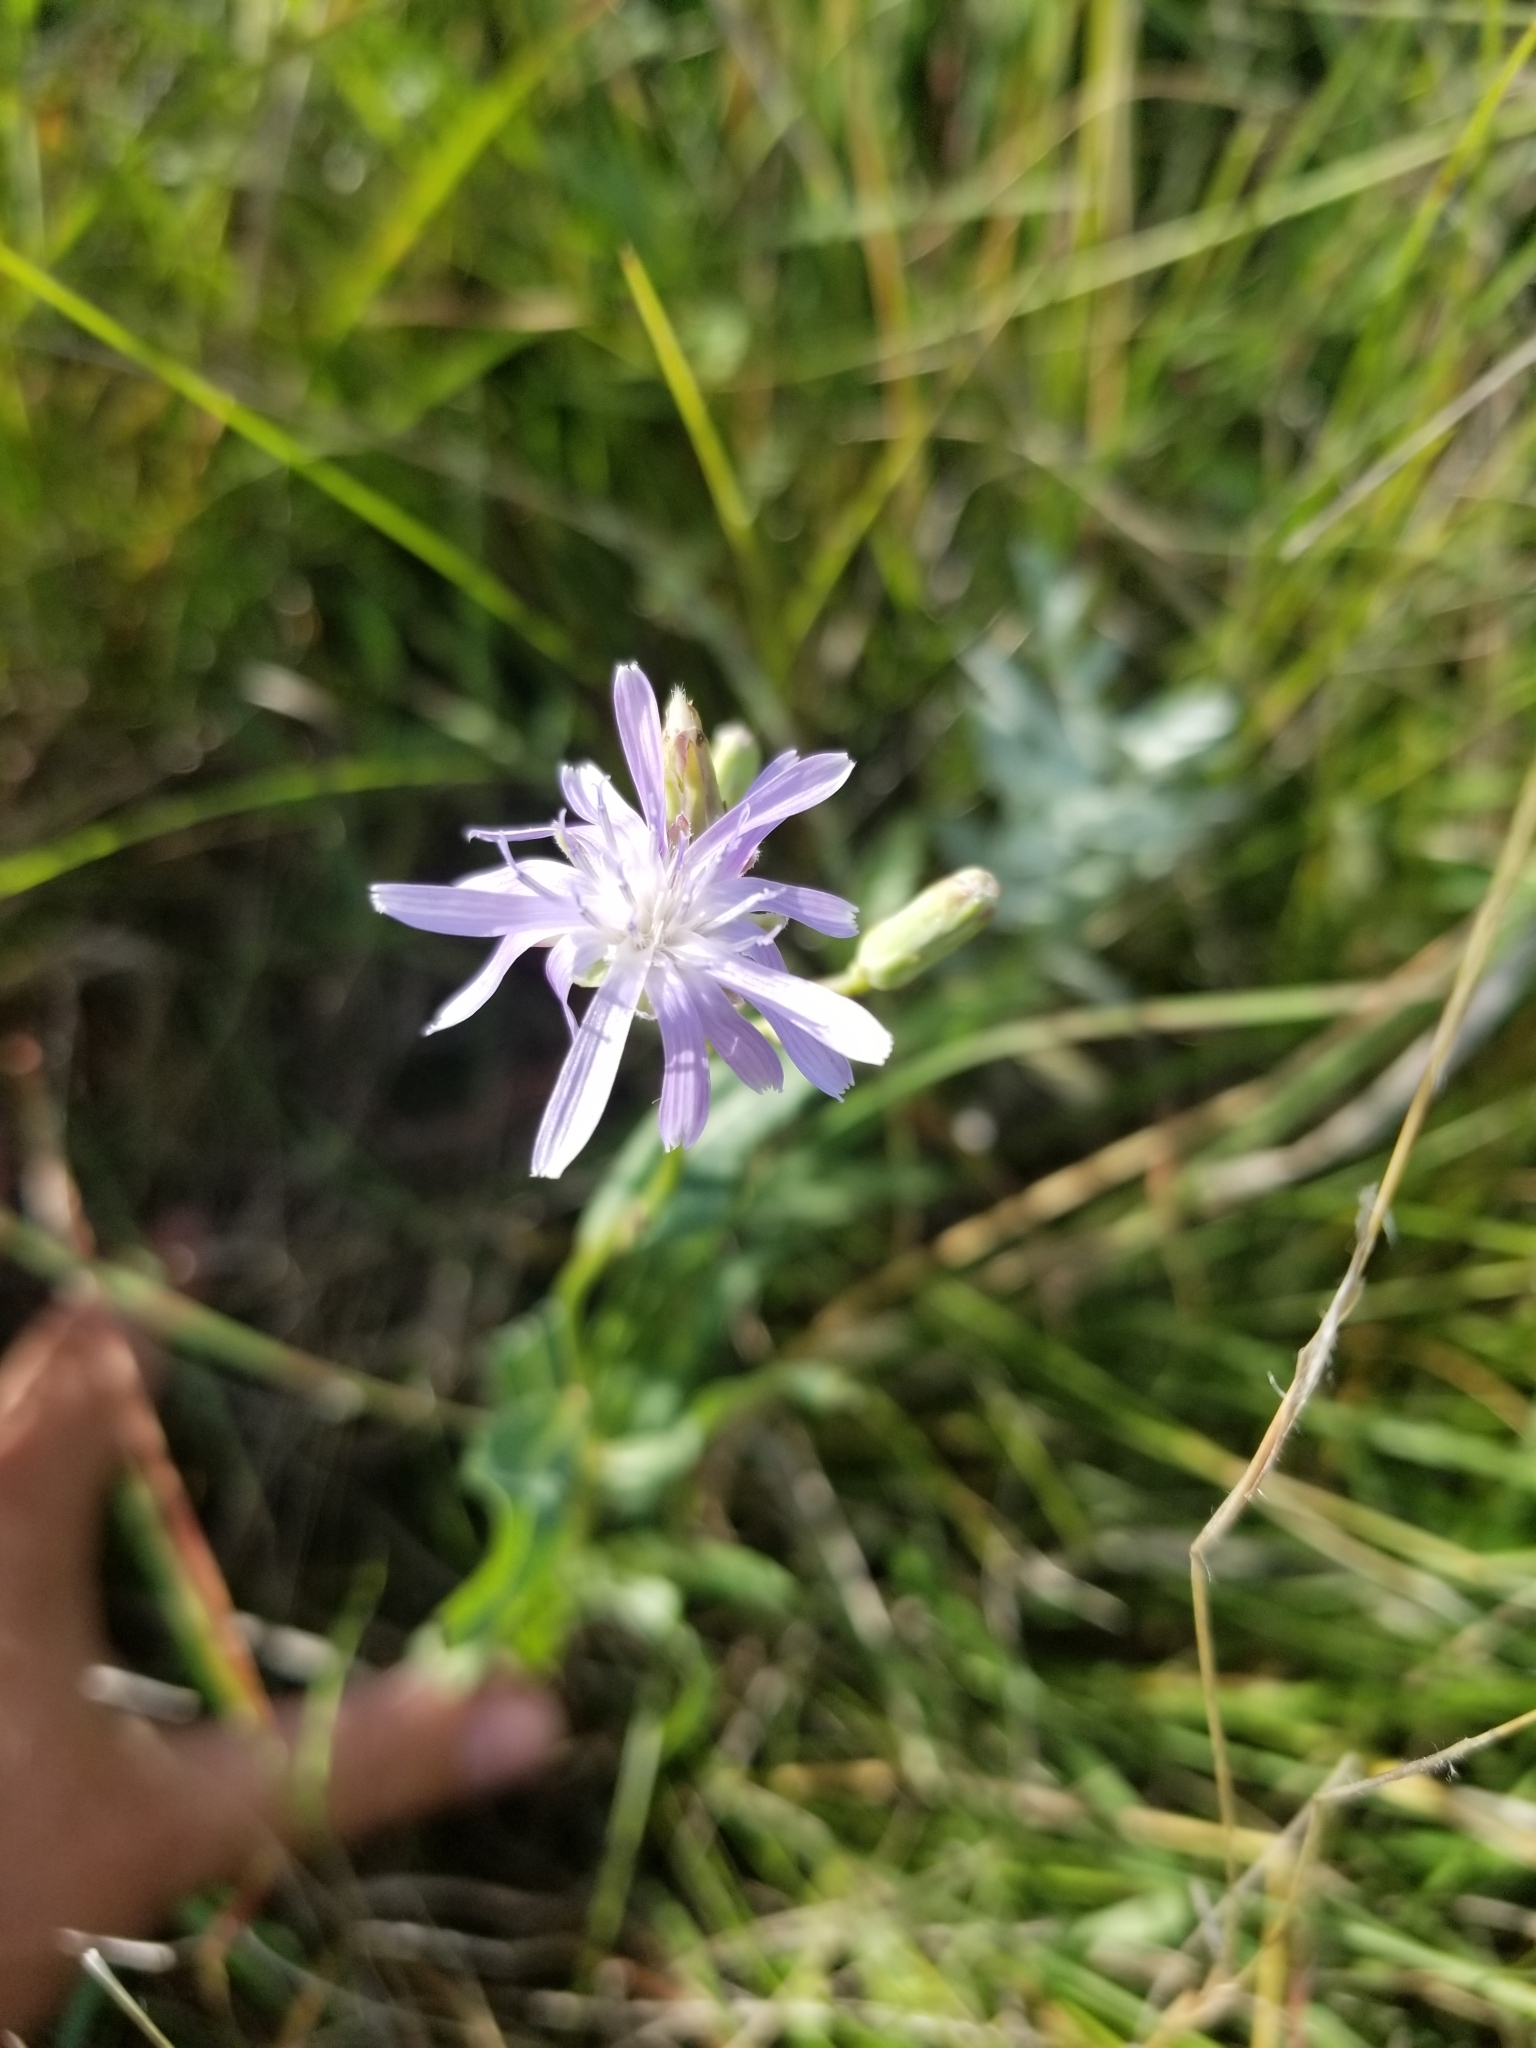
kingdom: Plantae
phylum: Tracheophyta
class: Magnoliopsida
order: Asterales
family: Asteraceae
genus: Lactuca
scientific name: Lactuca tatarica
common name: Blue lettuce
